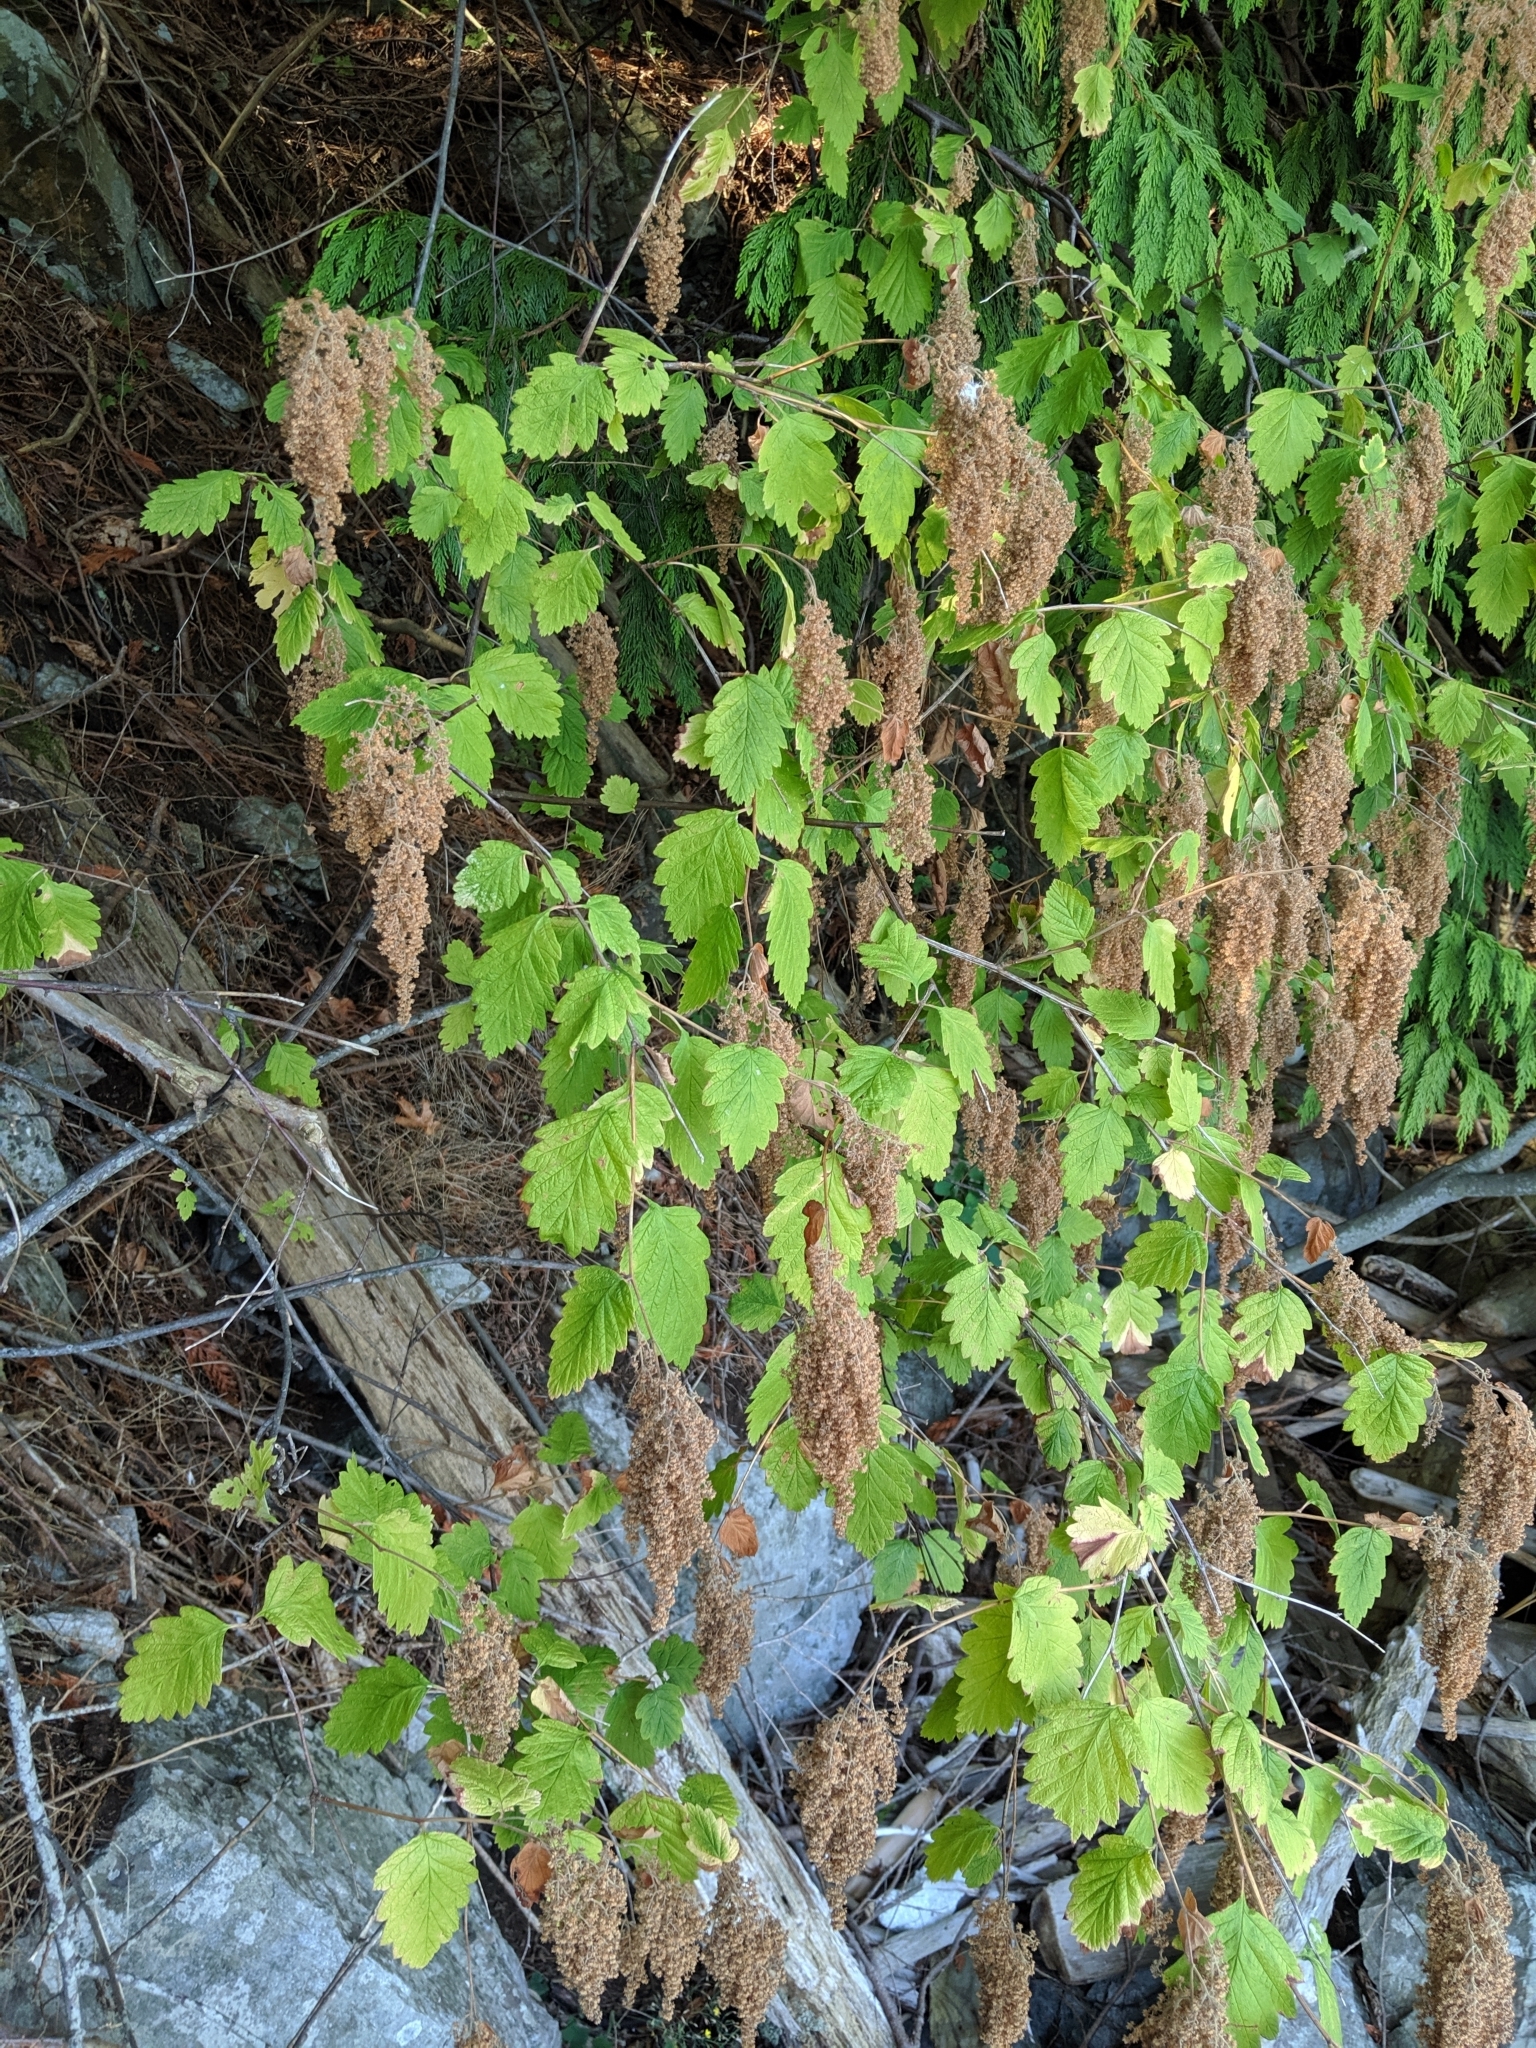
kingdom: Plantae
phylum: Tracheophyta
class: Magnoliopsida
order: Rosales
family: Rosaceae
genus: Holodiscus
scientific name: Holodiscus discolor
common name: Oceanspray
